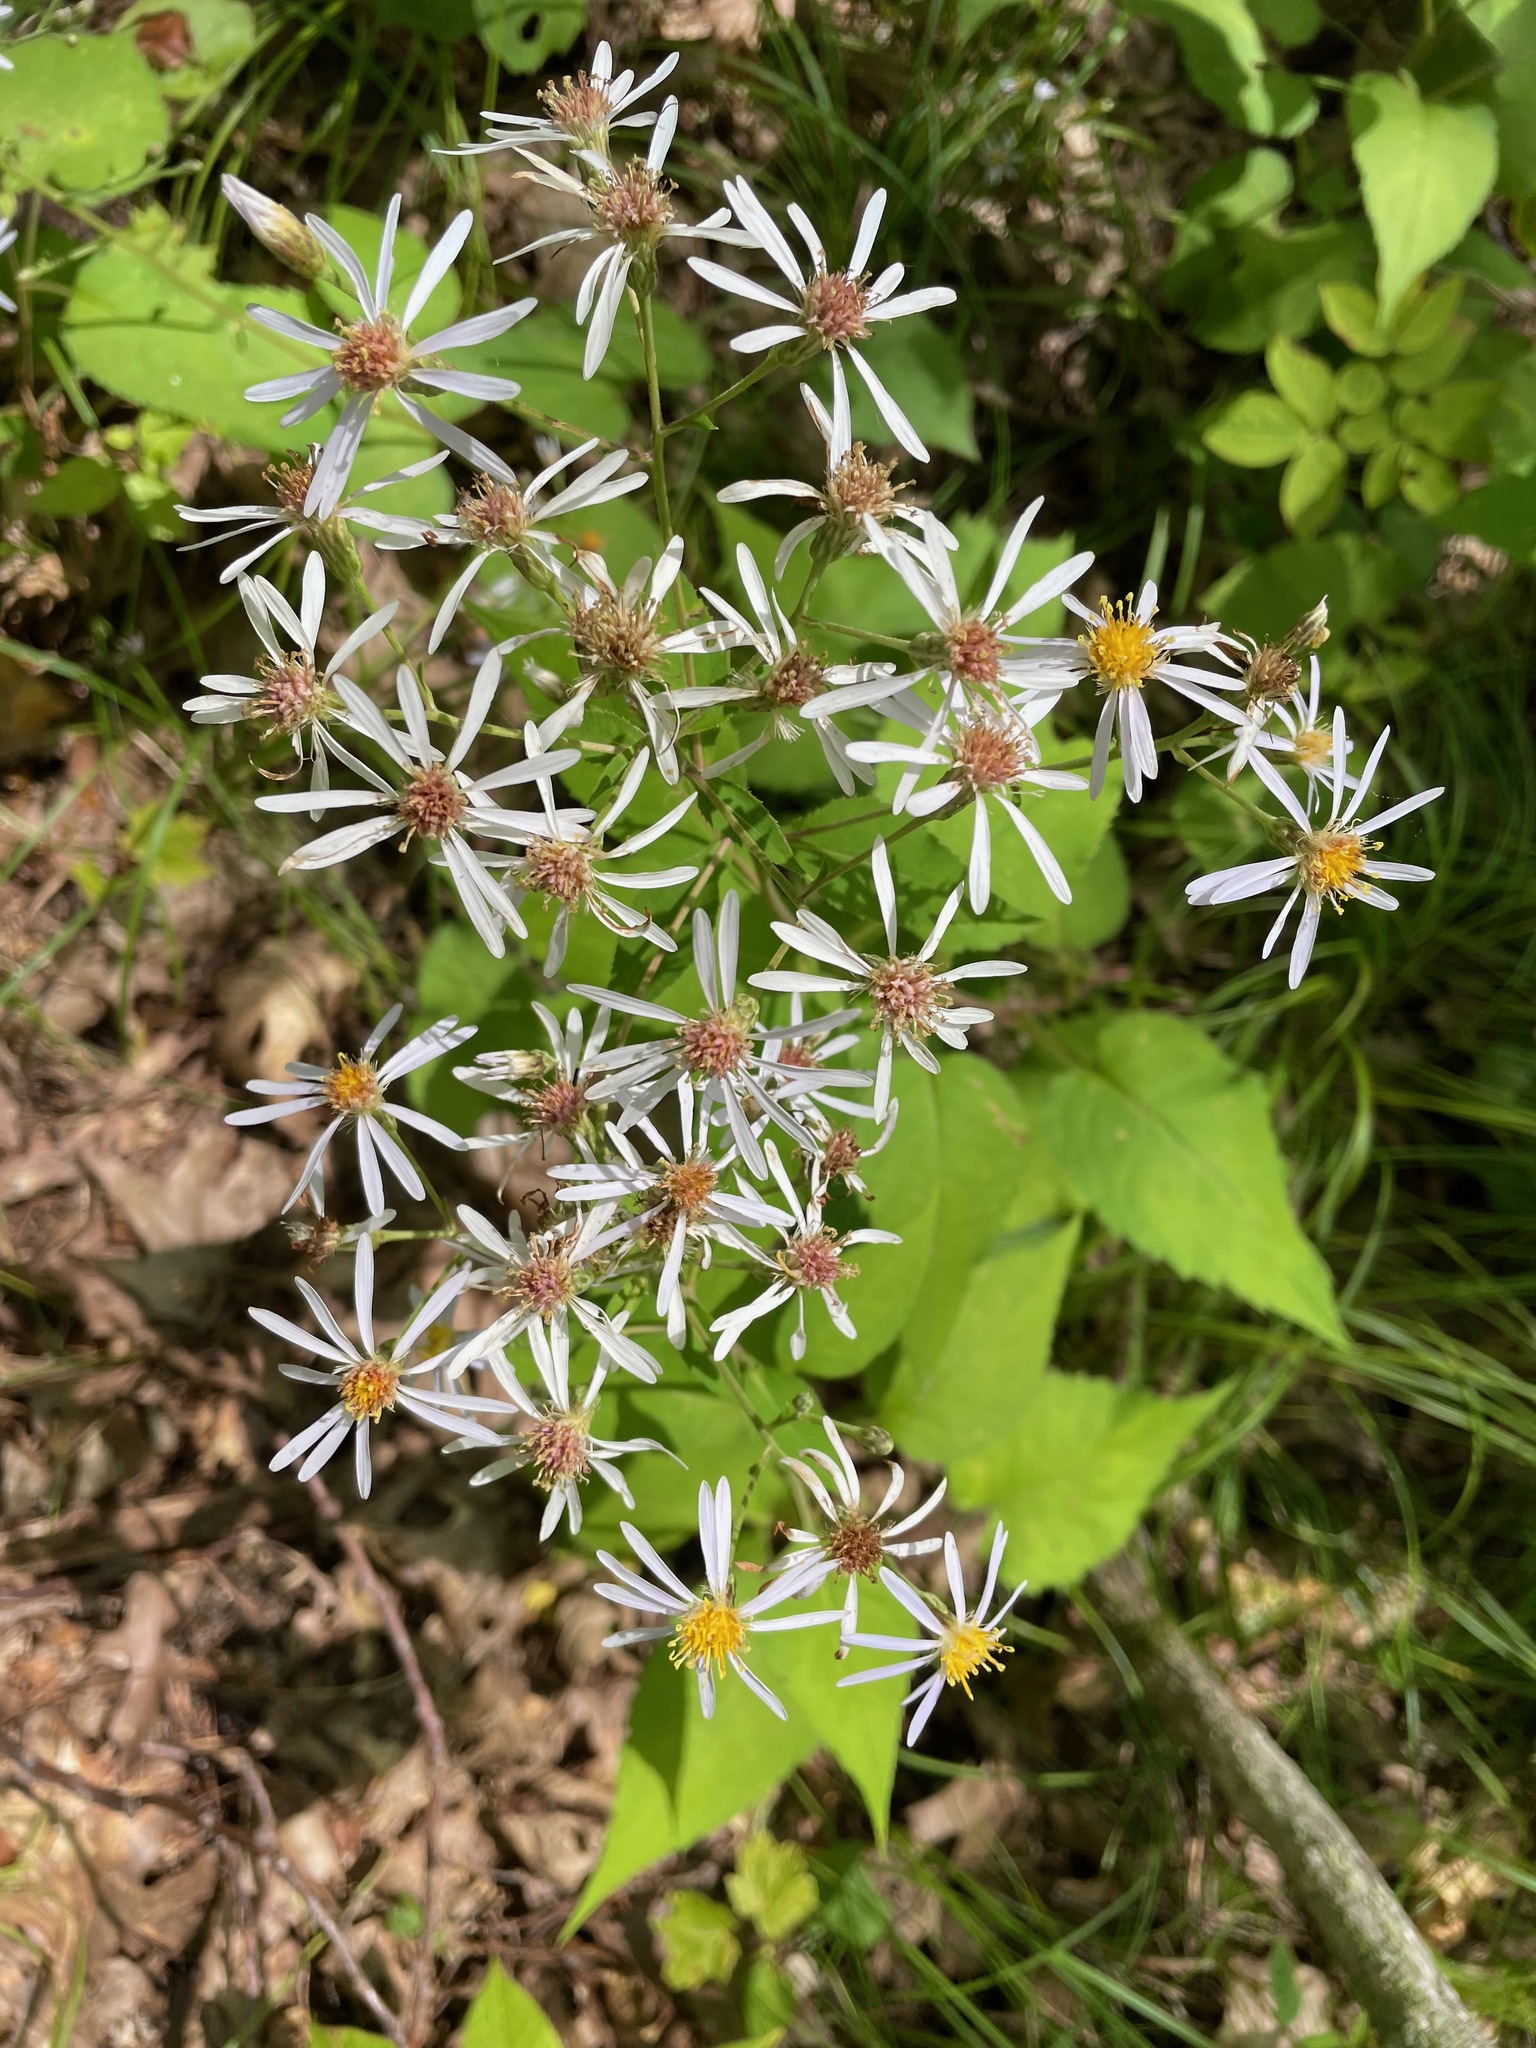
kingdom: Plantae
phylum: Tracheophyta
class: Magnoliopsida
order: Asterales
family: Asteraceae
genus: Eurybia
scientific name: Eurybia divaricata
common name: White wood aster
